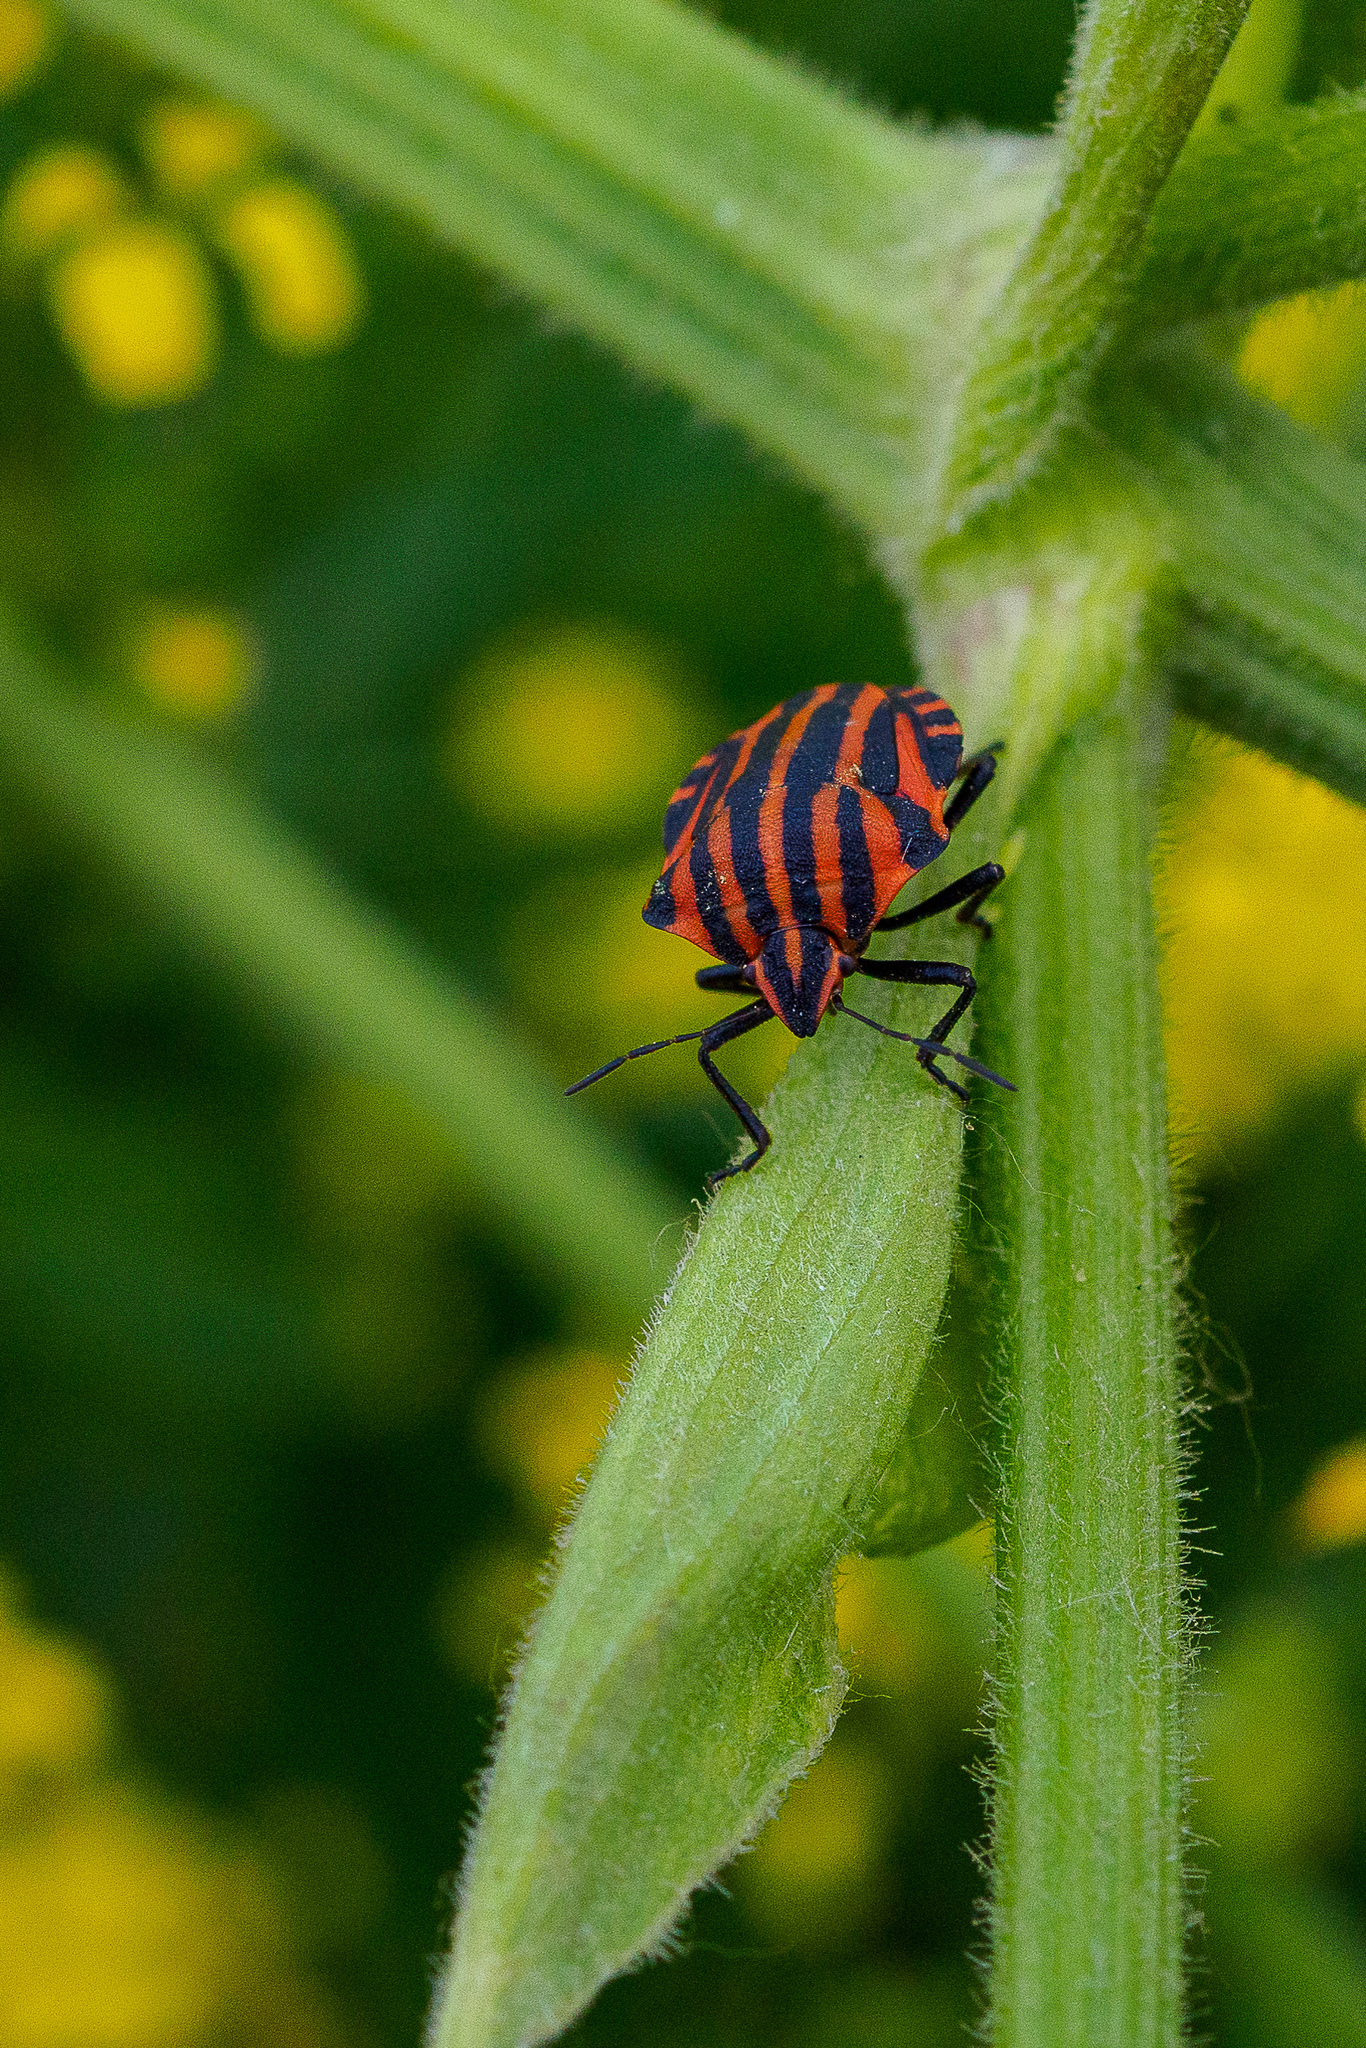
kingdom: Animalia
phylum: Arthropoda
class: Insecta
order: Hemiptera
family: Pentatomidae
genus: Graphosoma
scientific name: Graphosoma italicum
